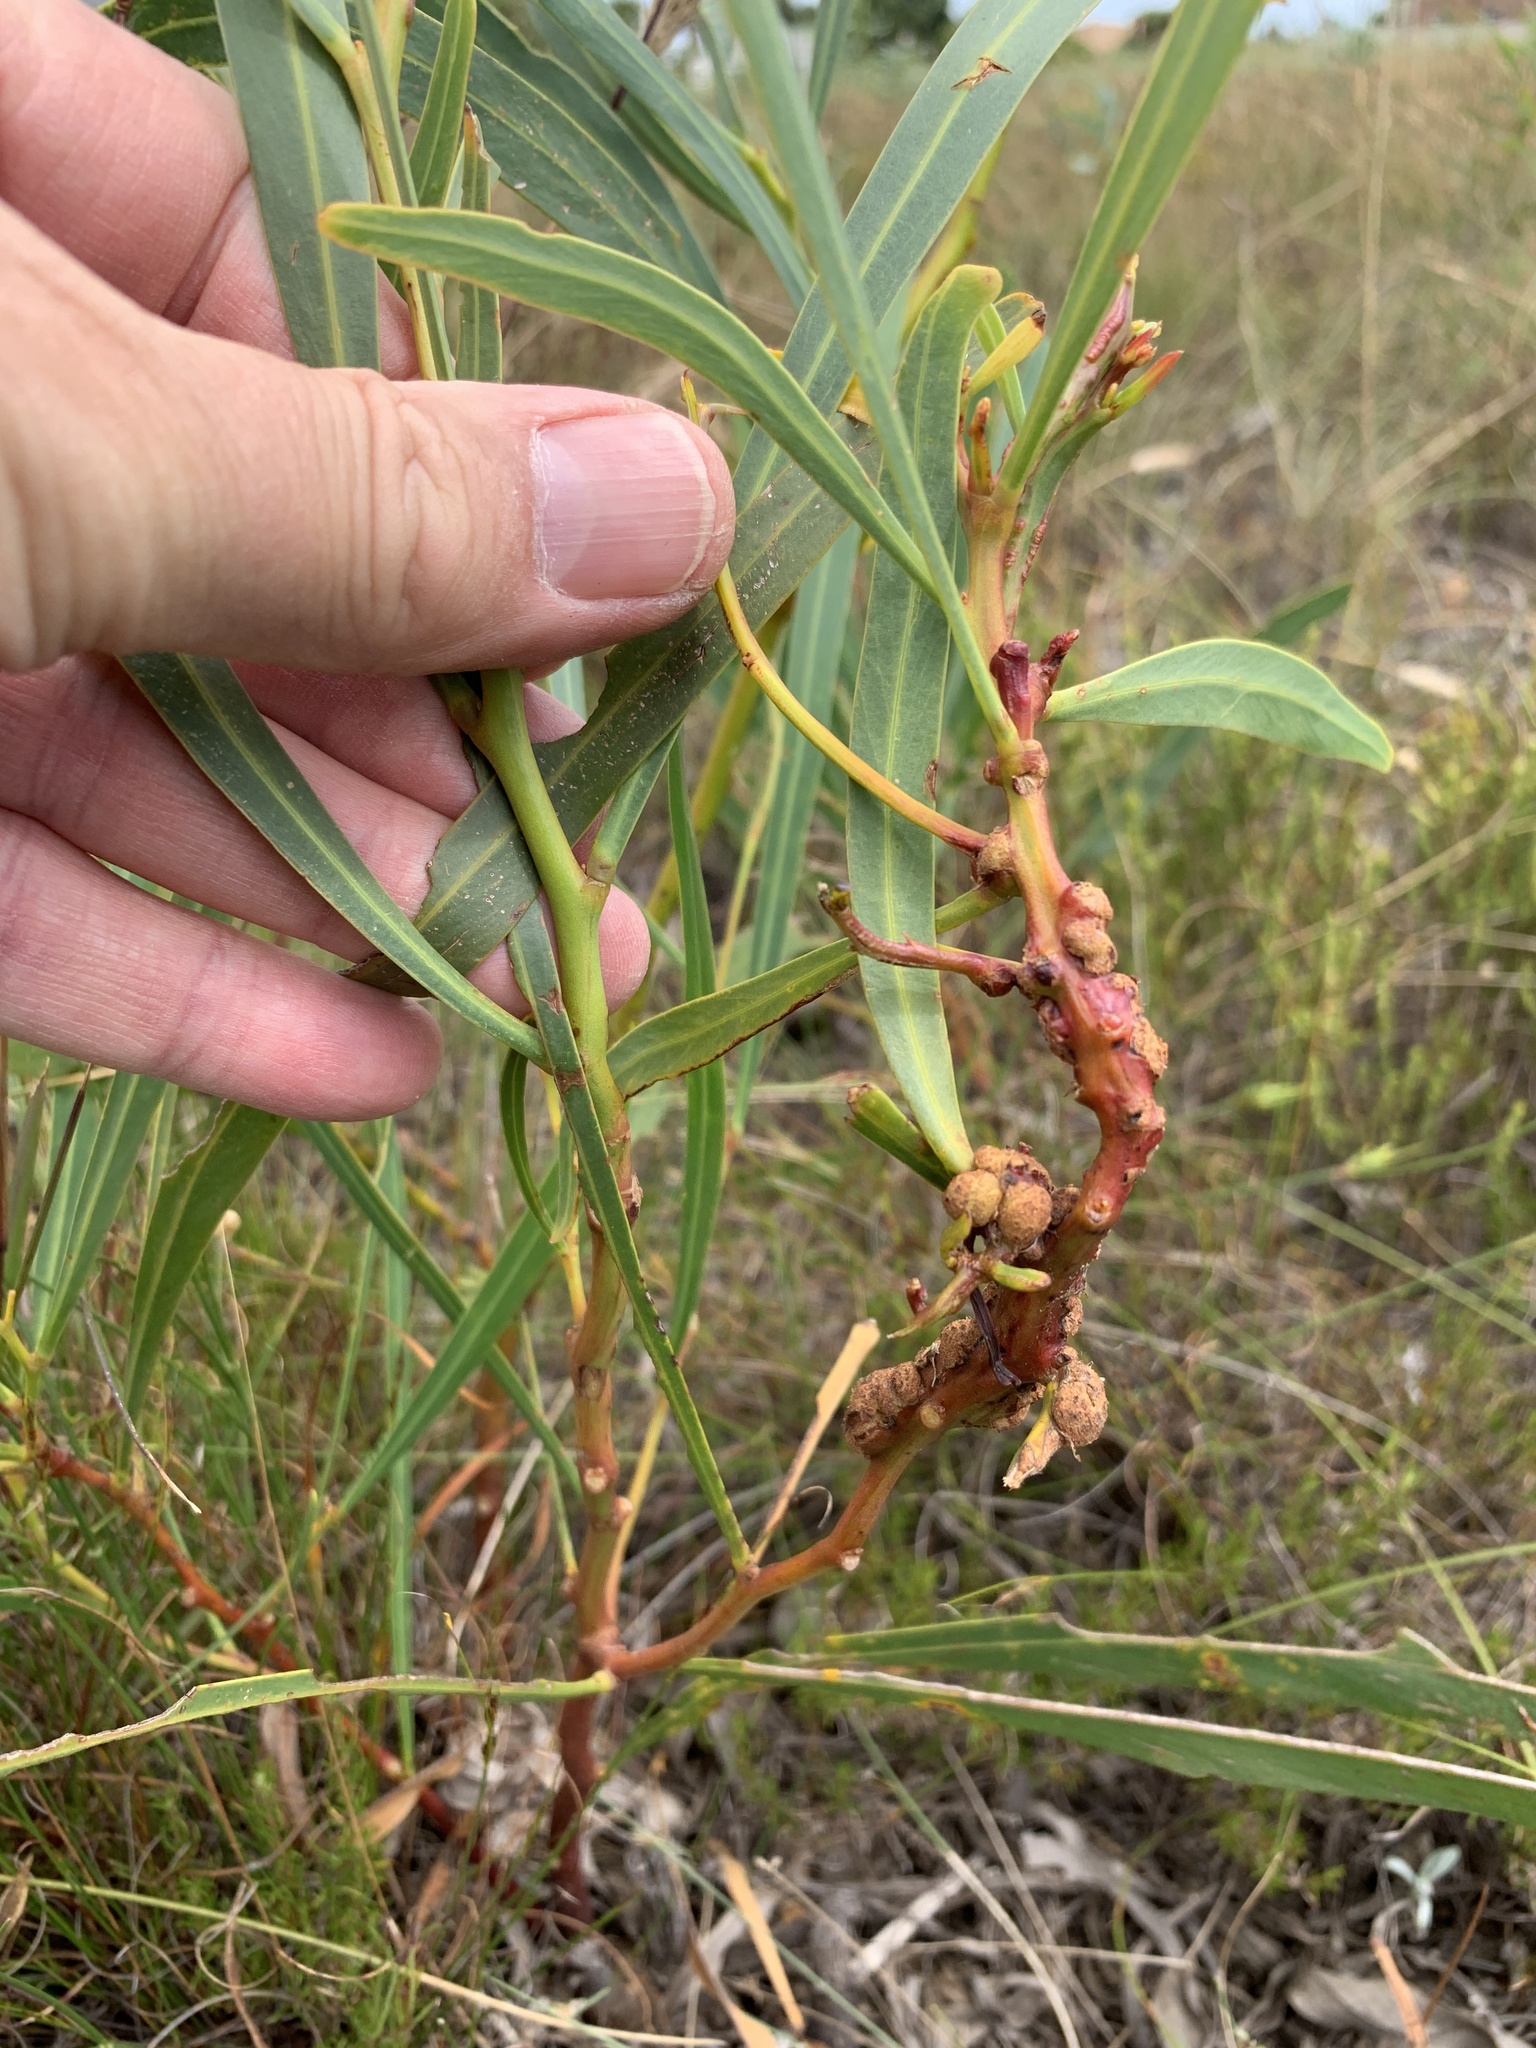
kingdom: Fungi
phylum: Basidiomycota
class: Pucciniomycetes
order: Pucciniales
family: Uromycladiaceae
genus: Uromycladium
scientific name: Uromycladium morrisii
